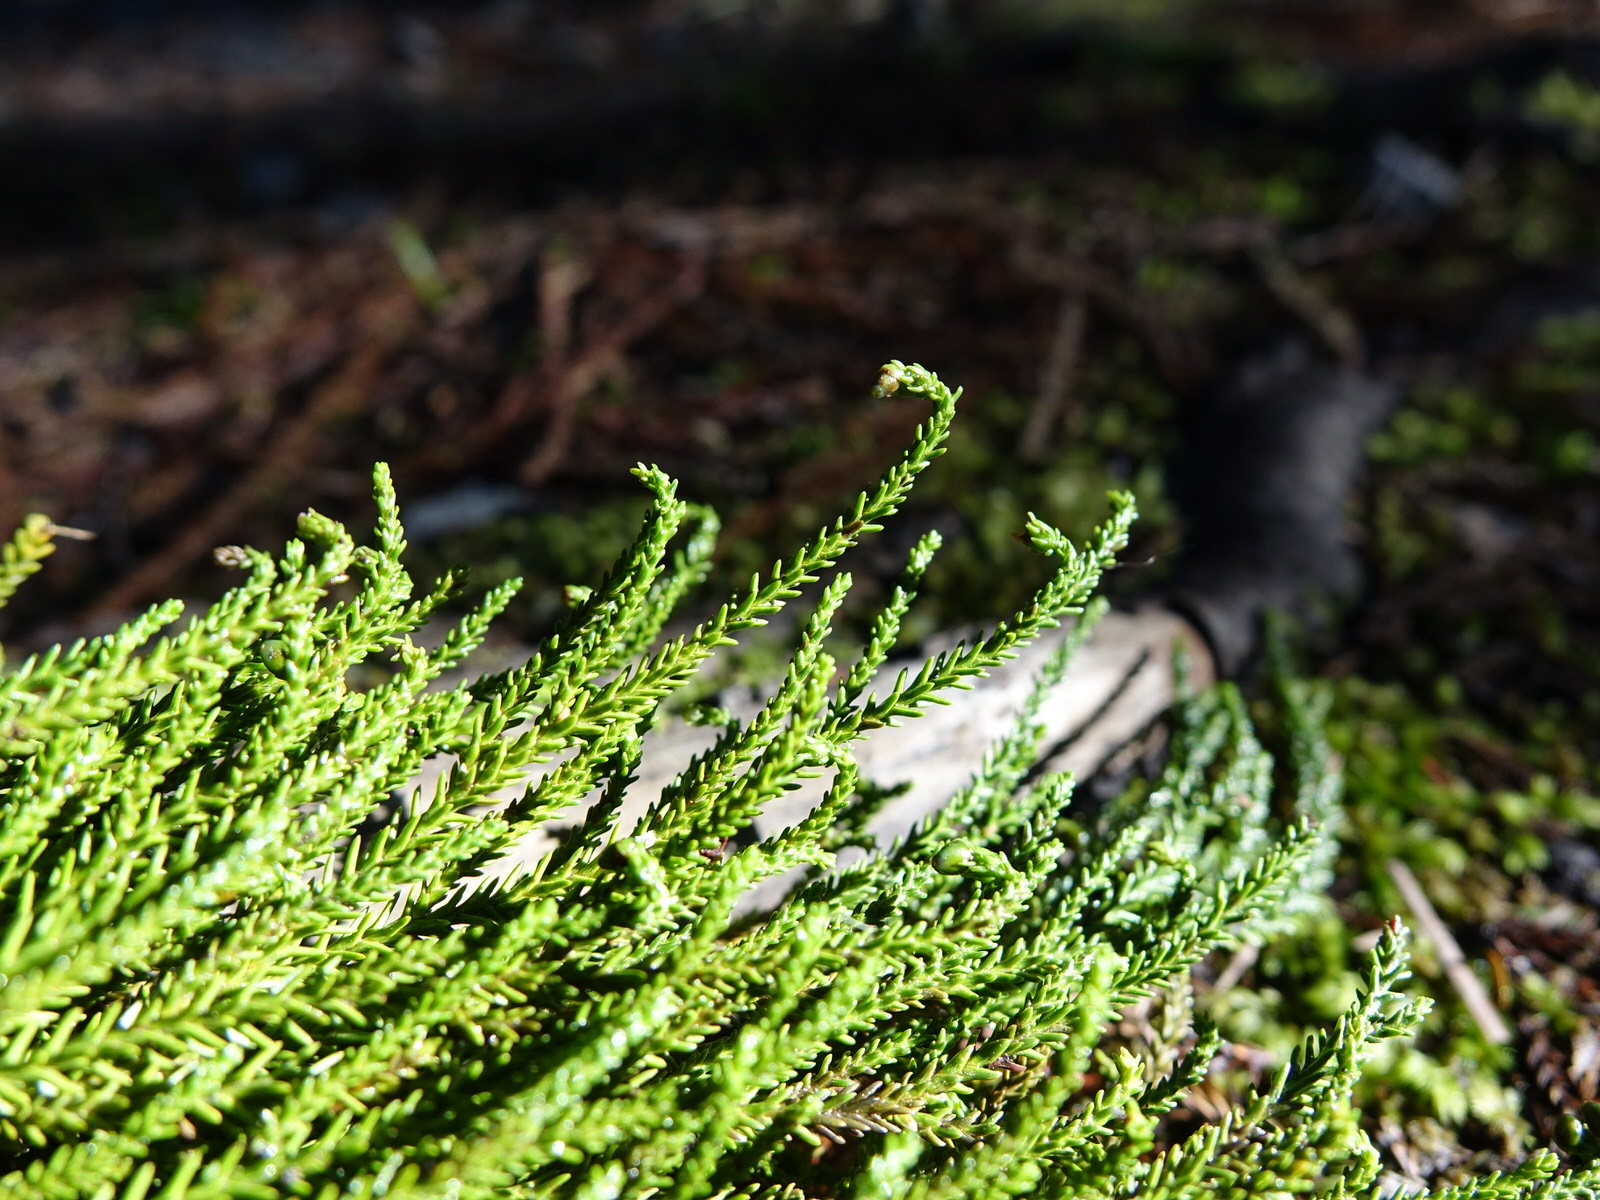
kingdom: Plantae
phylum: Tracheophyta
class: Pinopsida
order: Pinales
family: Podocarpaceae
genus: Dacrydium
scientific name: Dacrydium cupressinum
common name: Red pine
